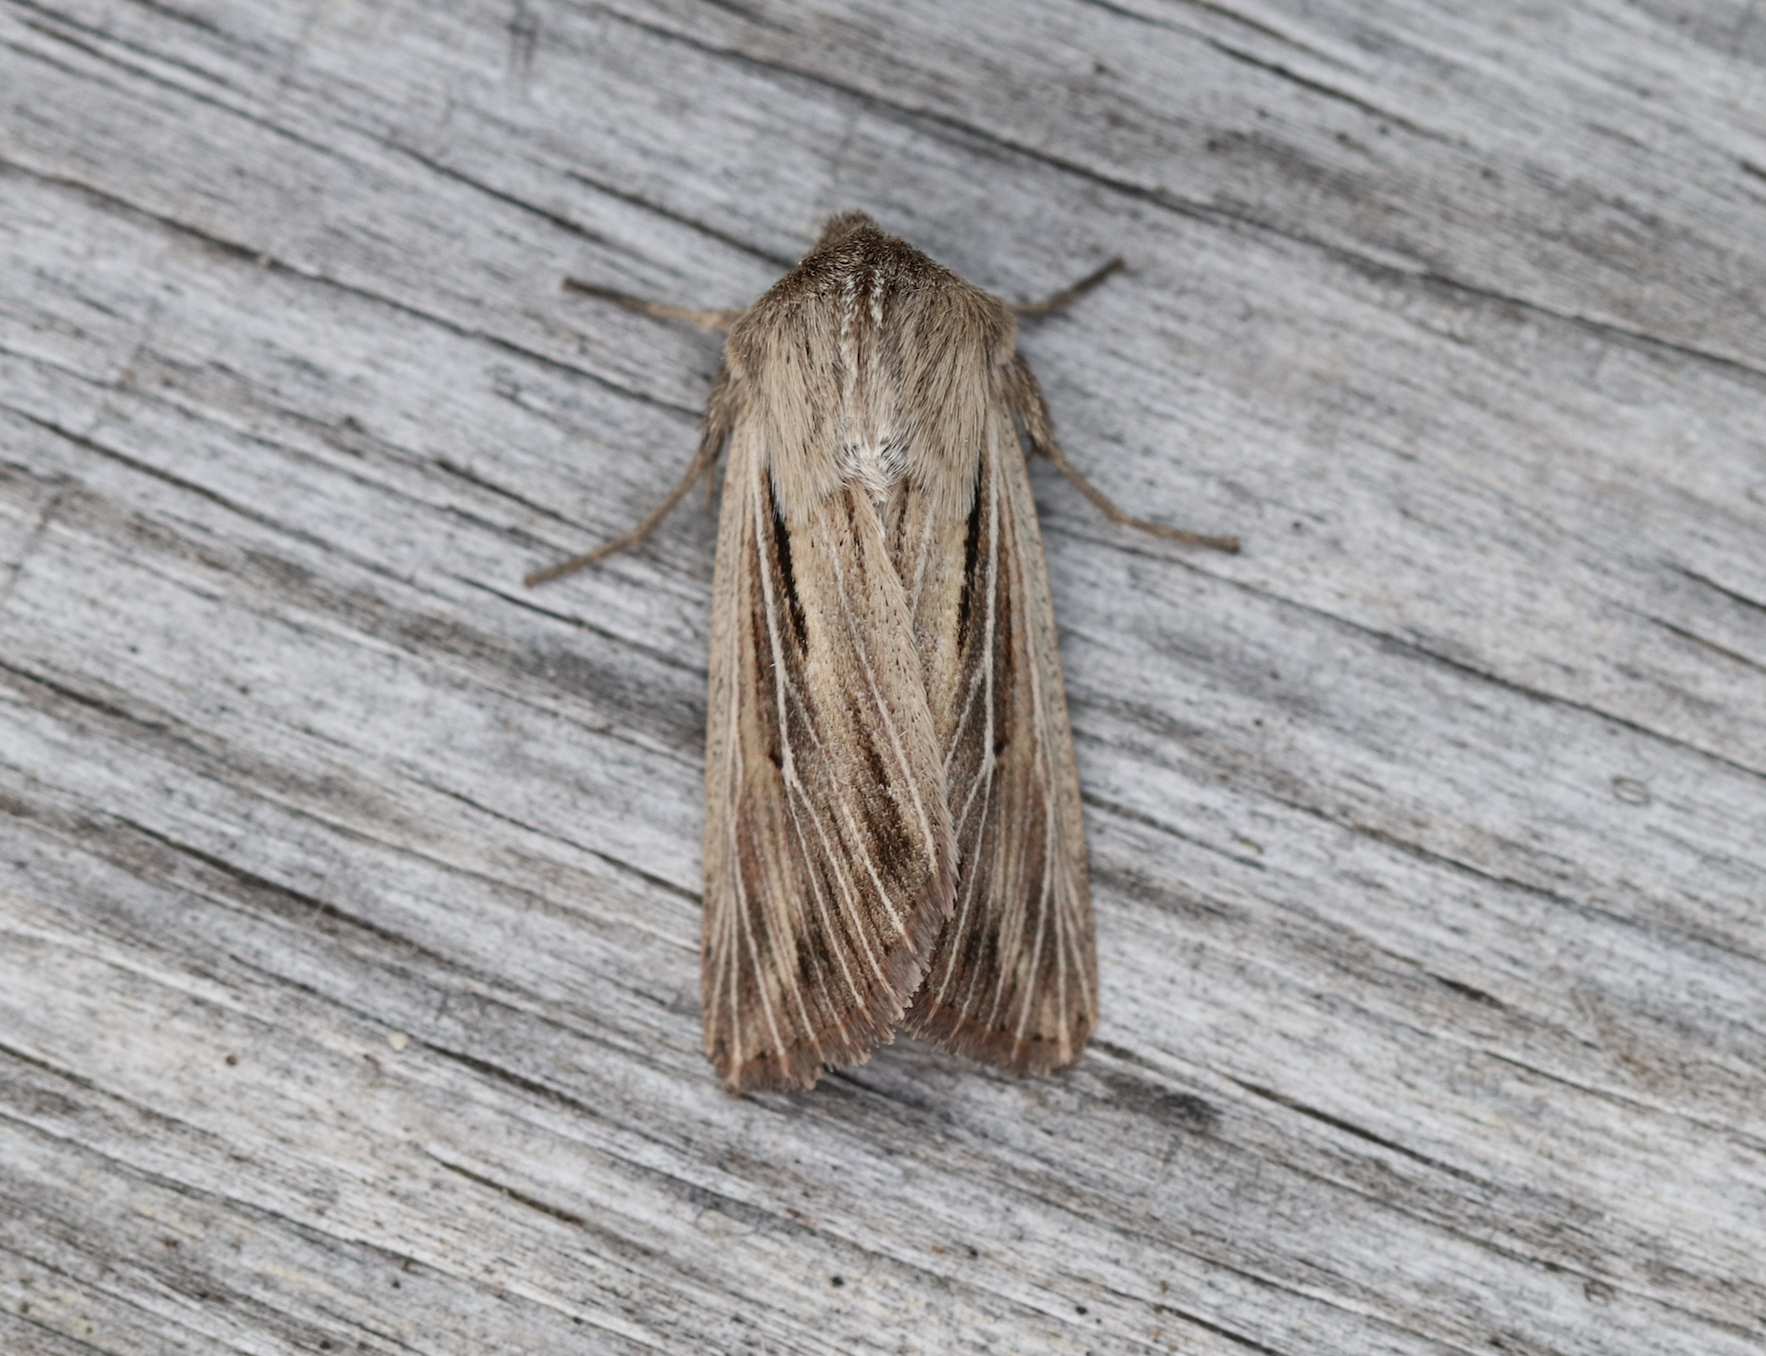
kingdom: Animalia
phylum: Arthropoda
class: Insecta
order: Lepidoptera
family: Noctuidae
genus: Leucania
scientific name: Leucania comma
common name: Shoulder-striped wainscot
